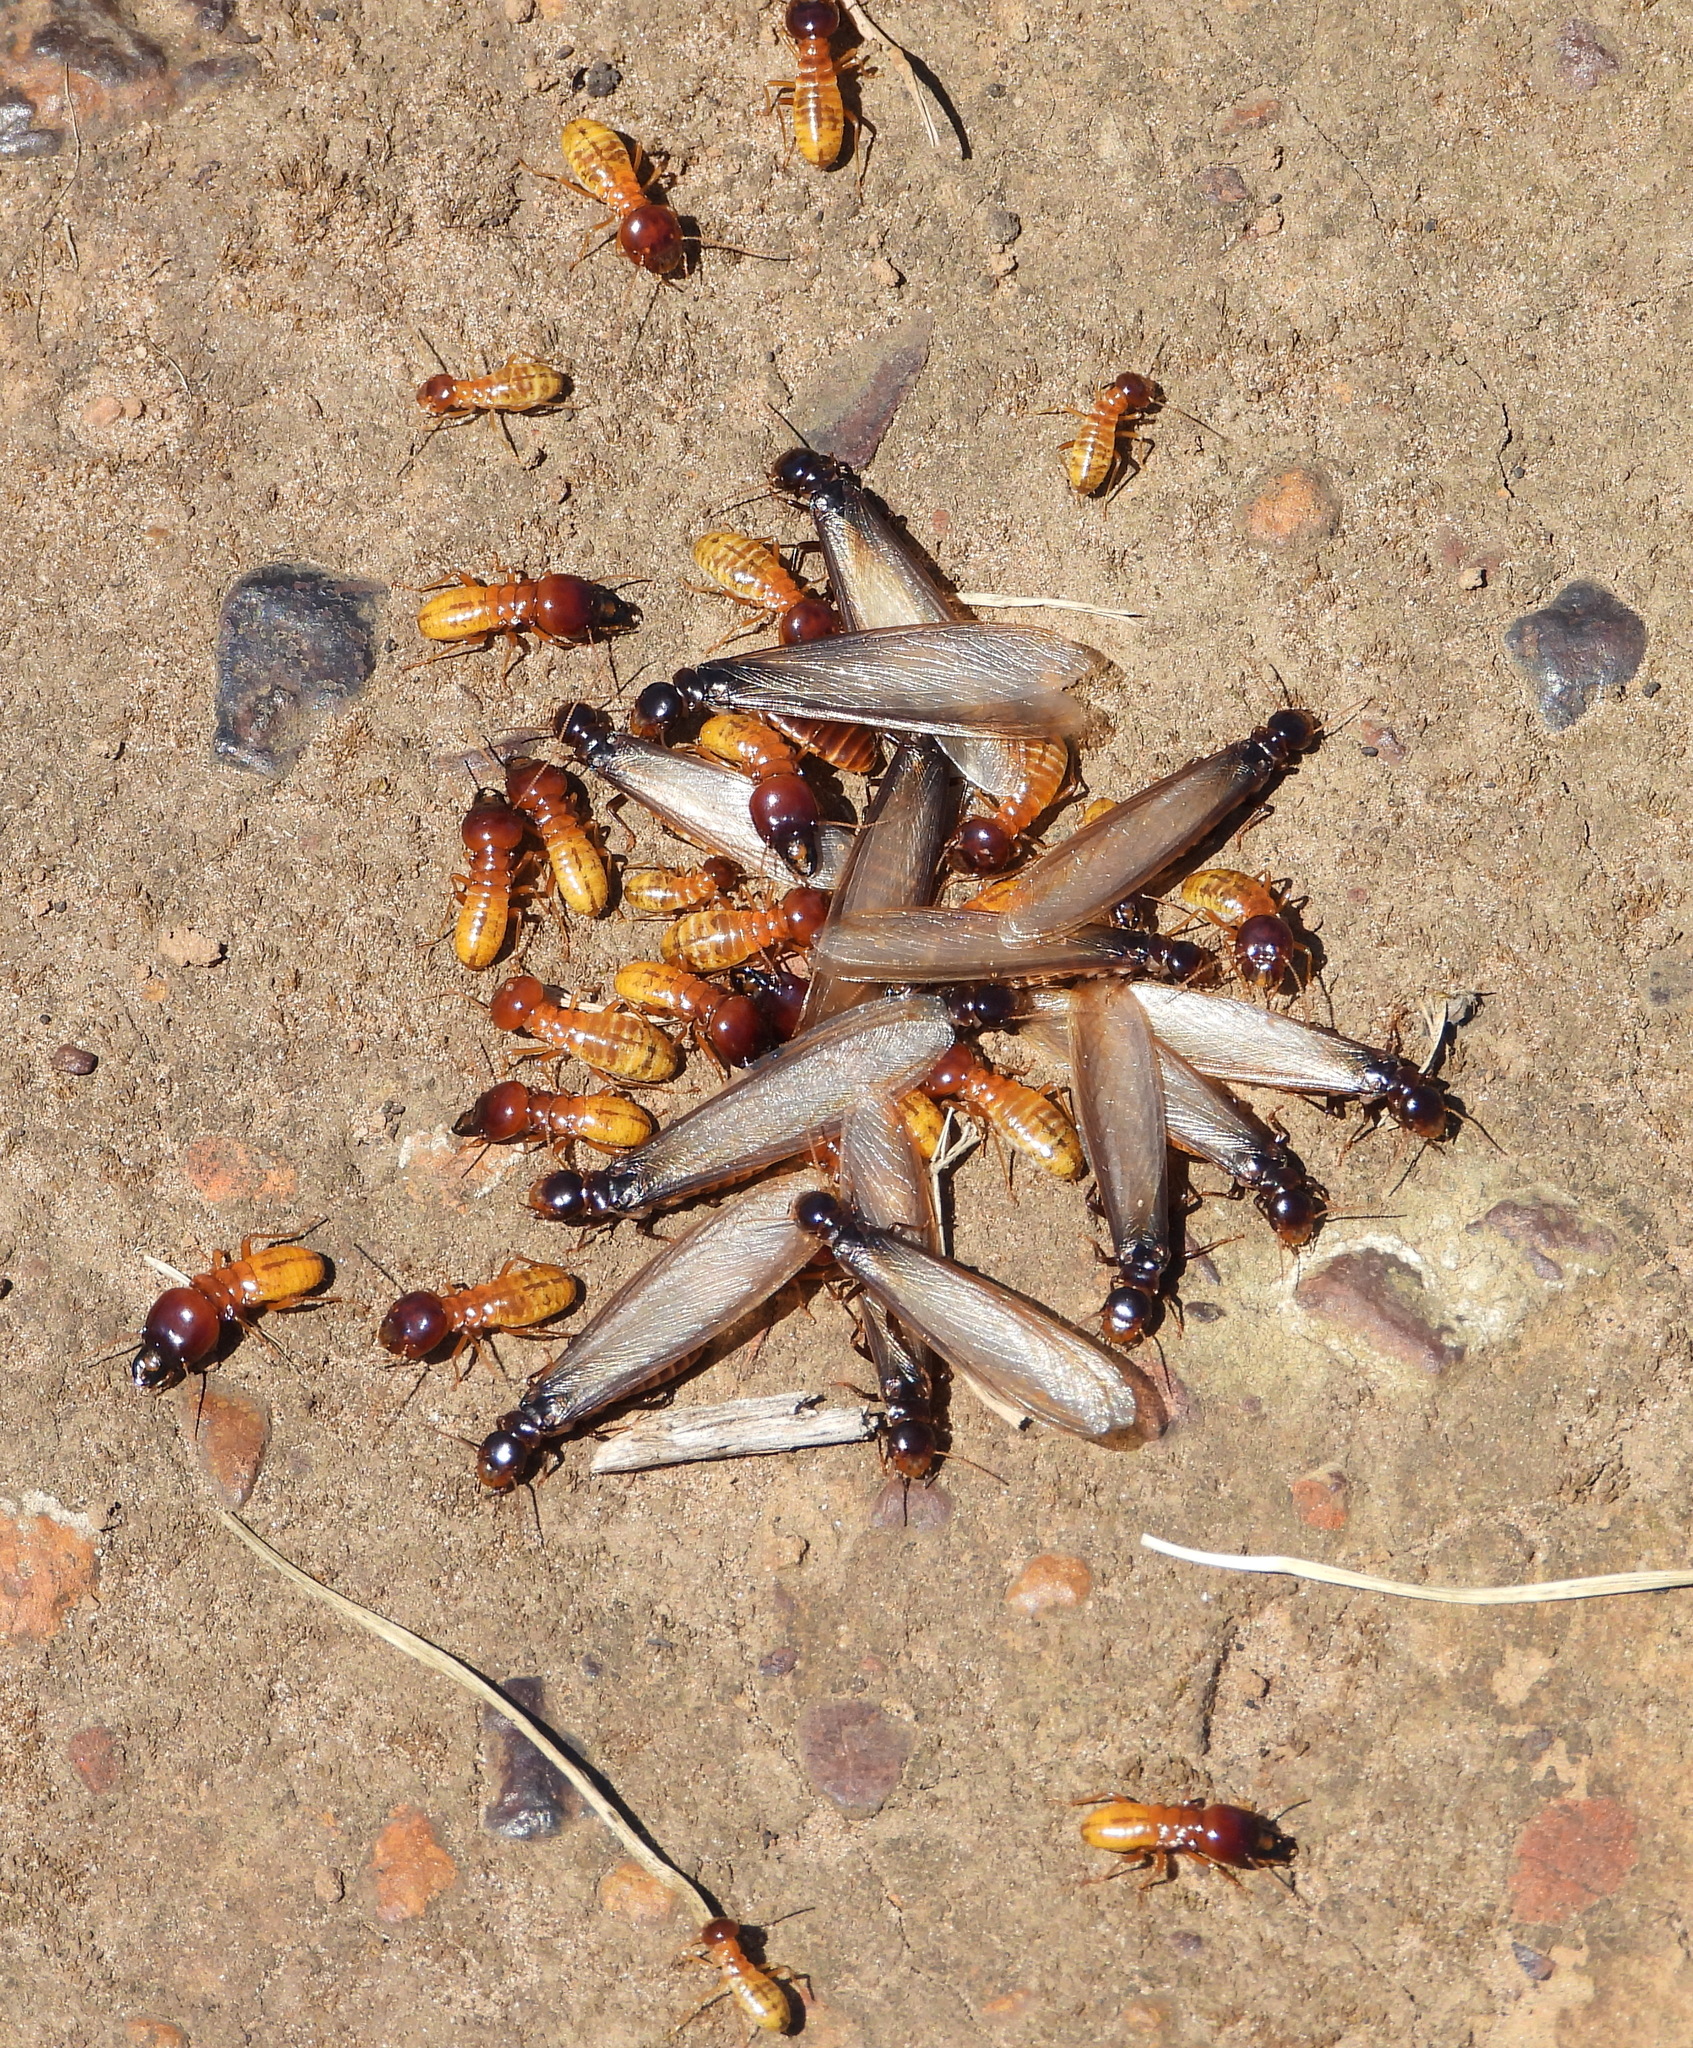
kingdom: Animalia
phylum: Arthropoda
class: Insecta
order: Blattodea
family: Hodotermitidae
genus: Microhodotermes
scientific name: Microhodotermes viator
